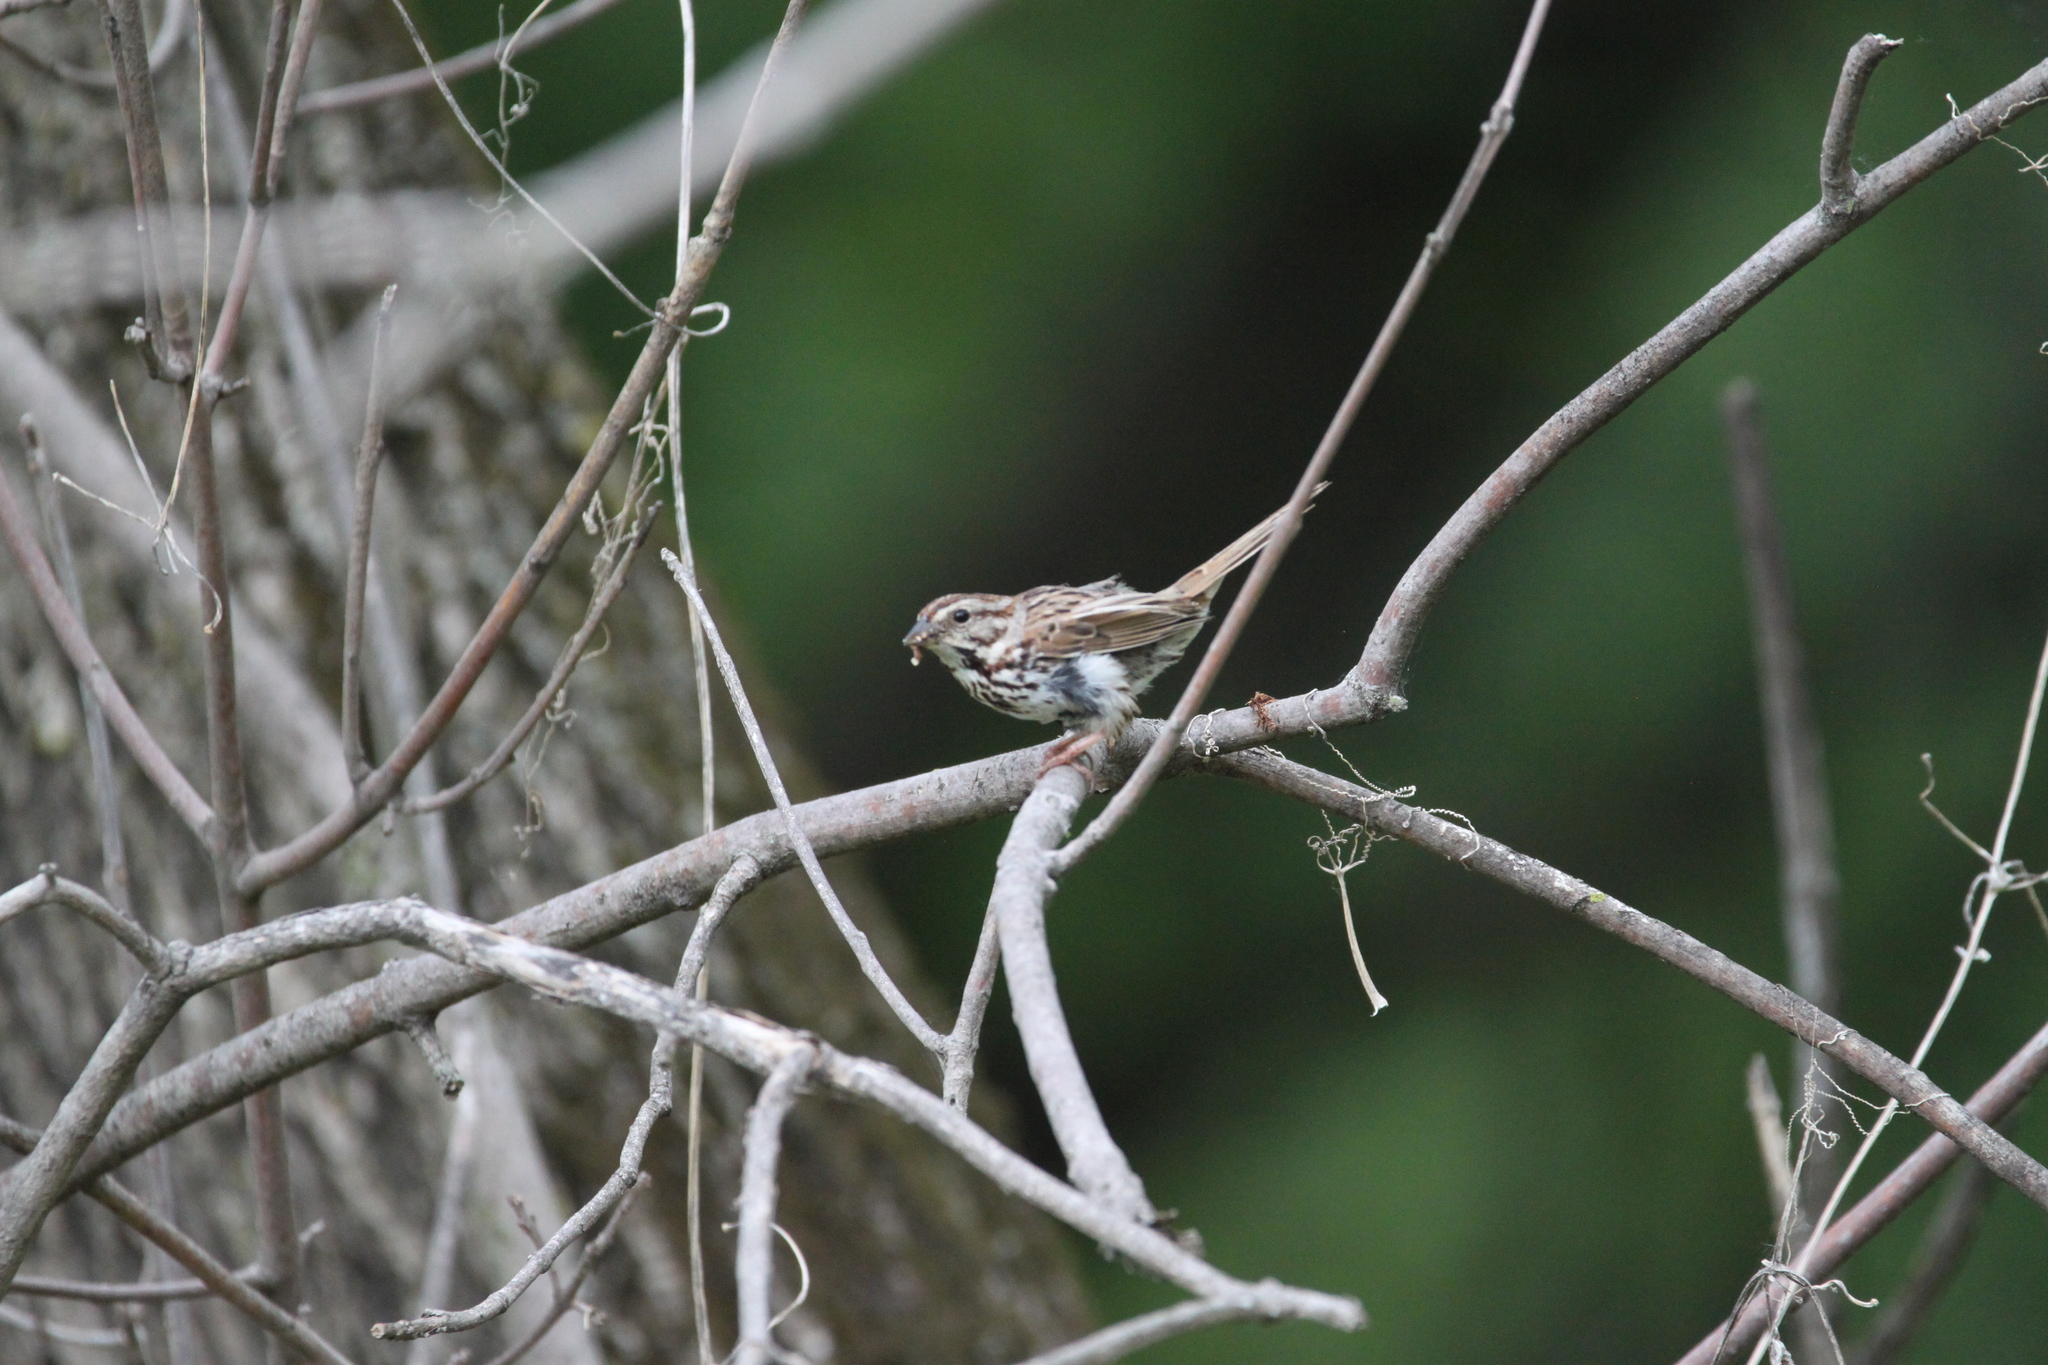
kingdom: Animalia
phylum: Chordata
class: Aves
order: Passeriformes
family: Passerellidae
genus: Melospiza
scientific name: Melospiza melodia
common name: Song sparrow
